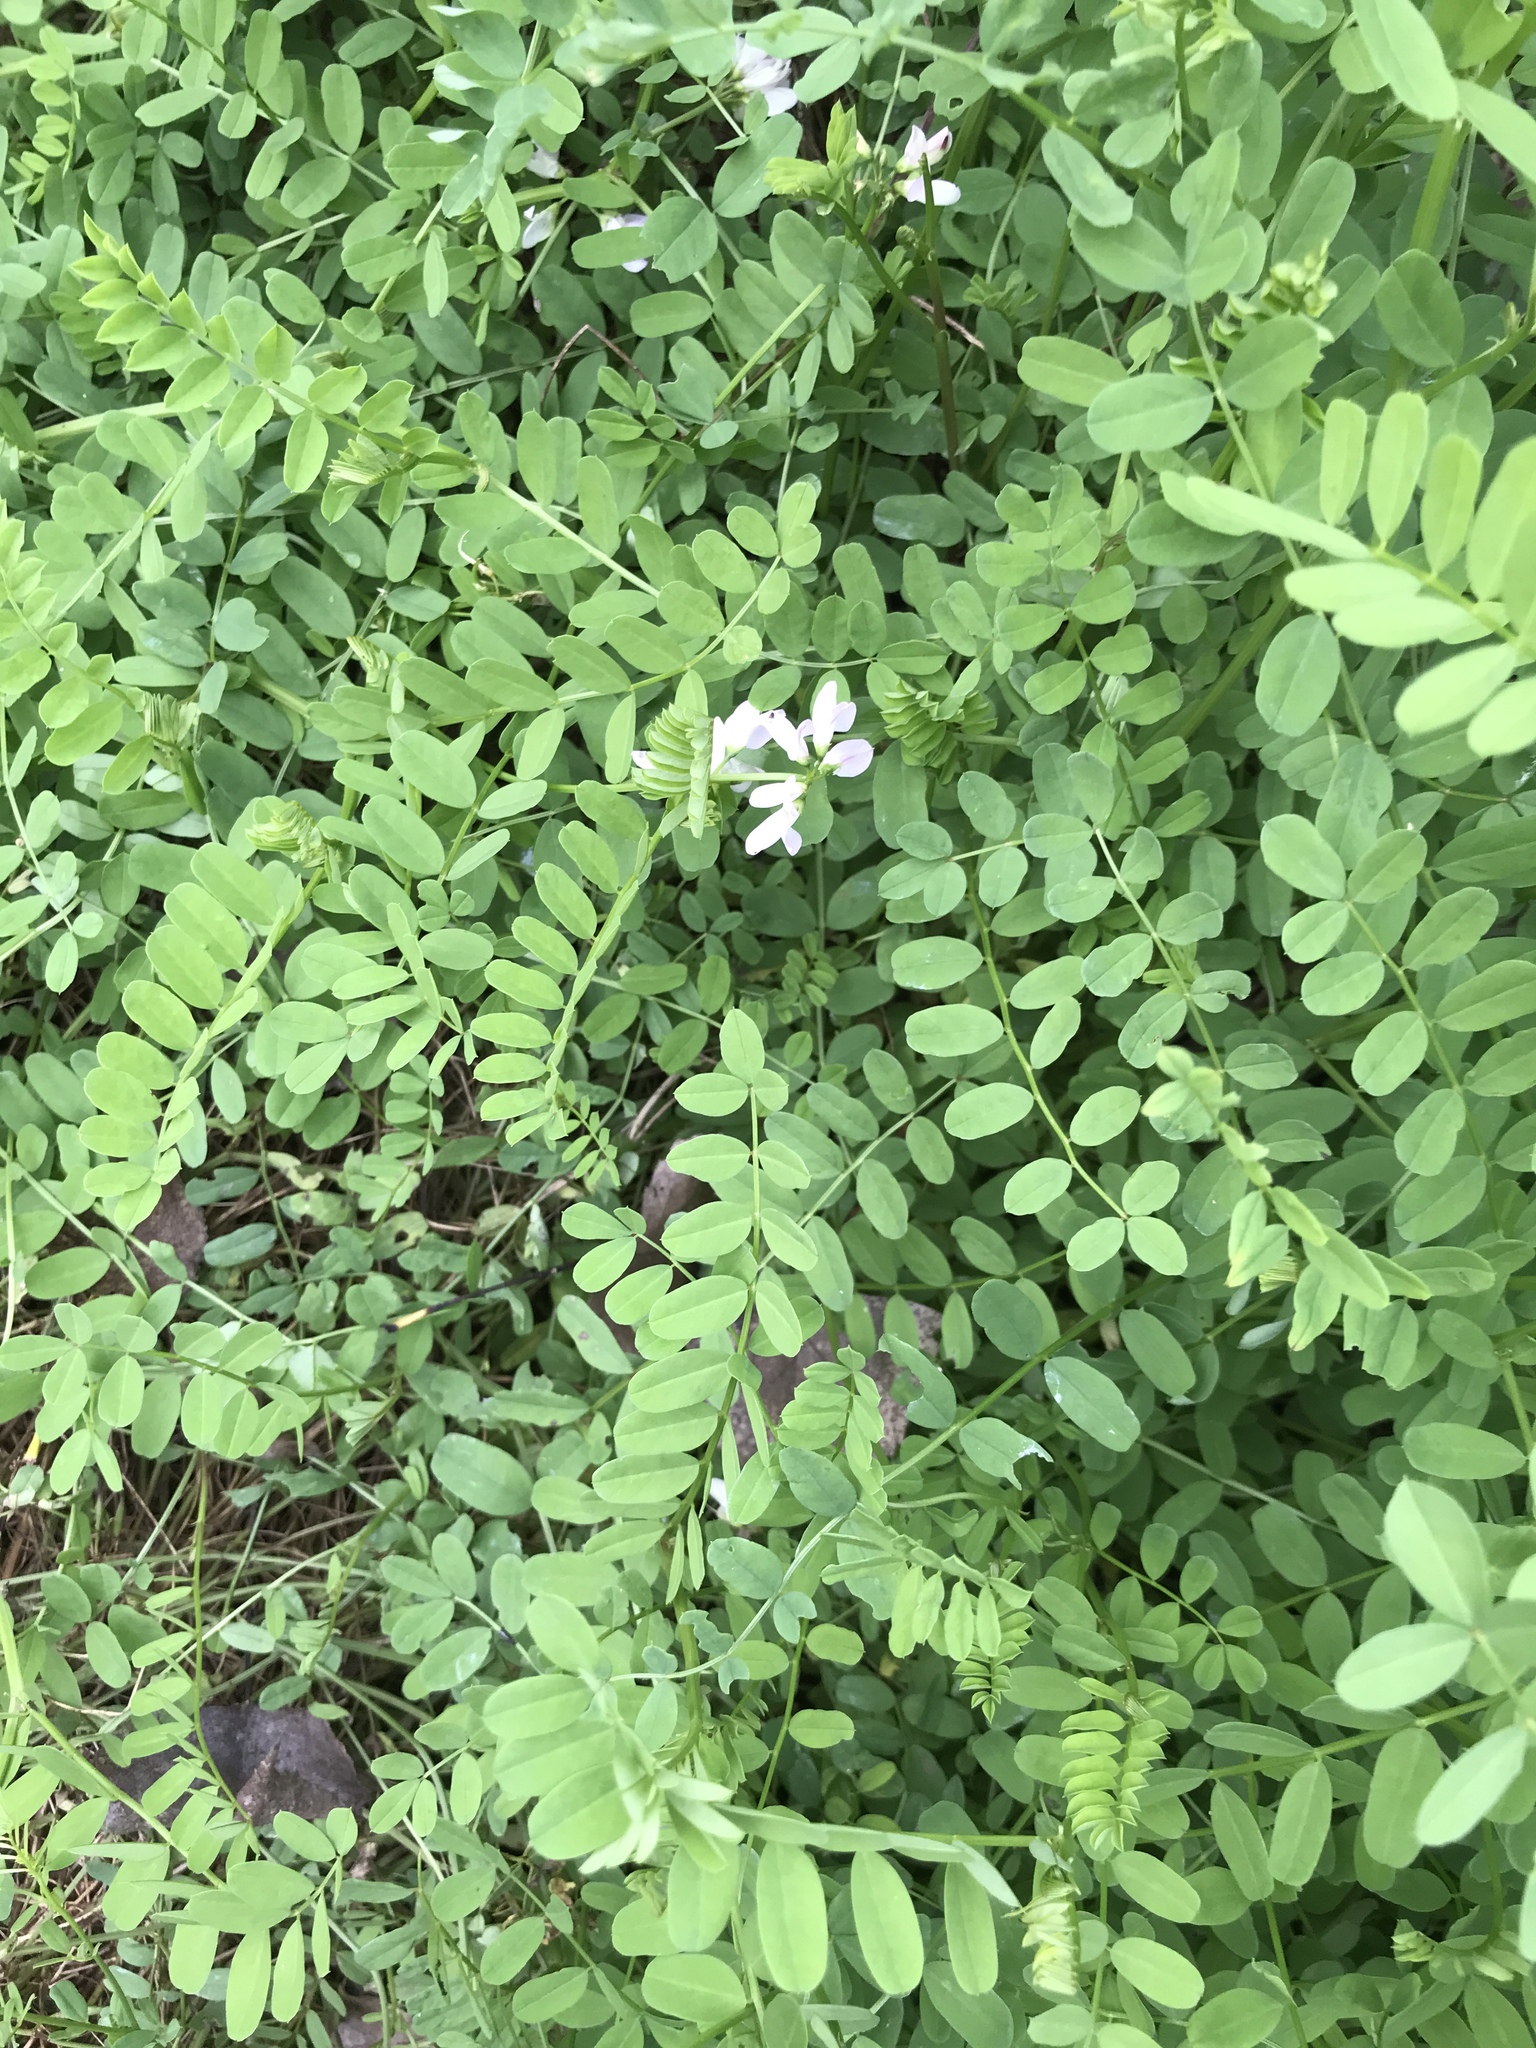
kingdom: Plantae
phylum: Tracheophyta
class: Magnoliopsida
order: Fabales
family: Fabaceae
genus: Coronilla
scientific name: Coronilla varia
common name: Crownvetch
